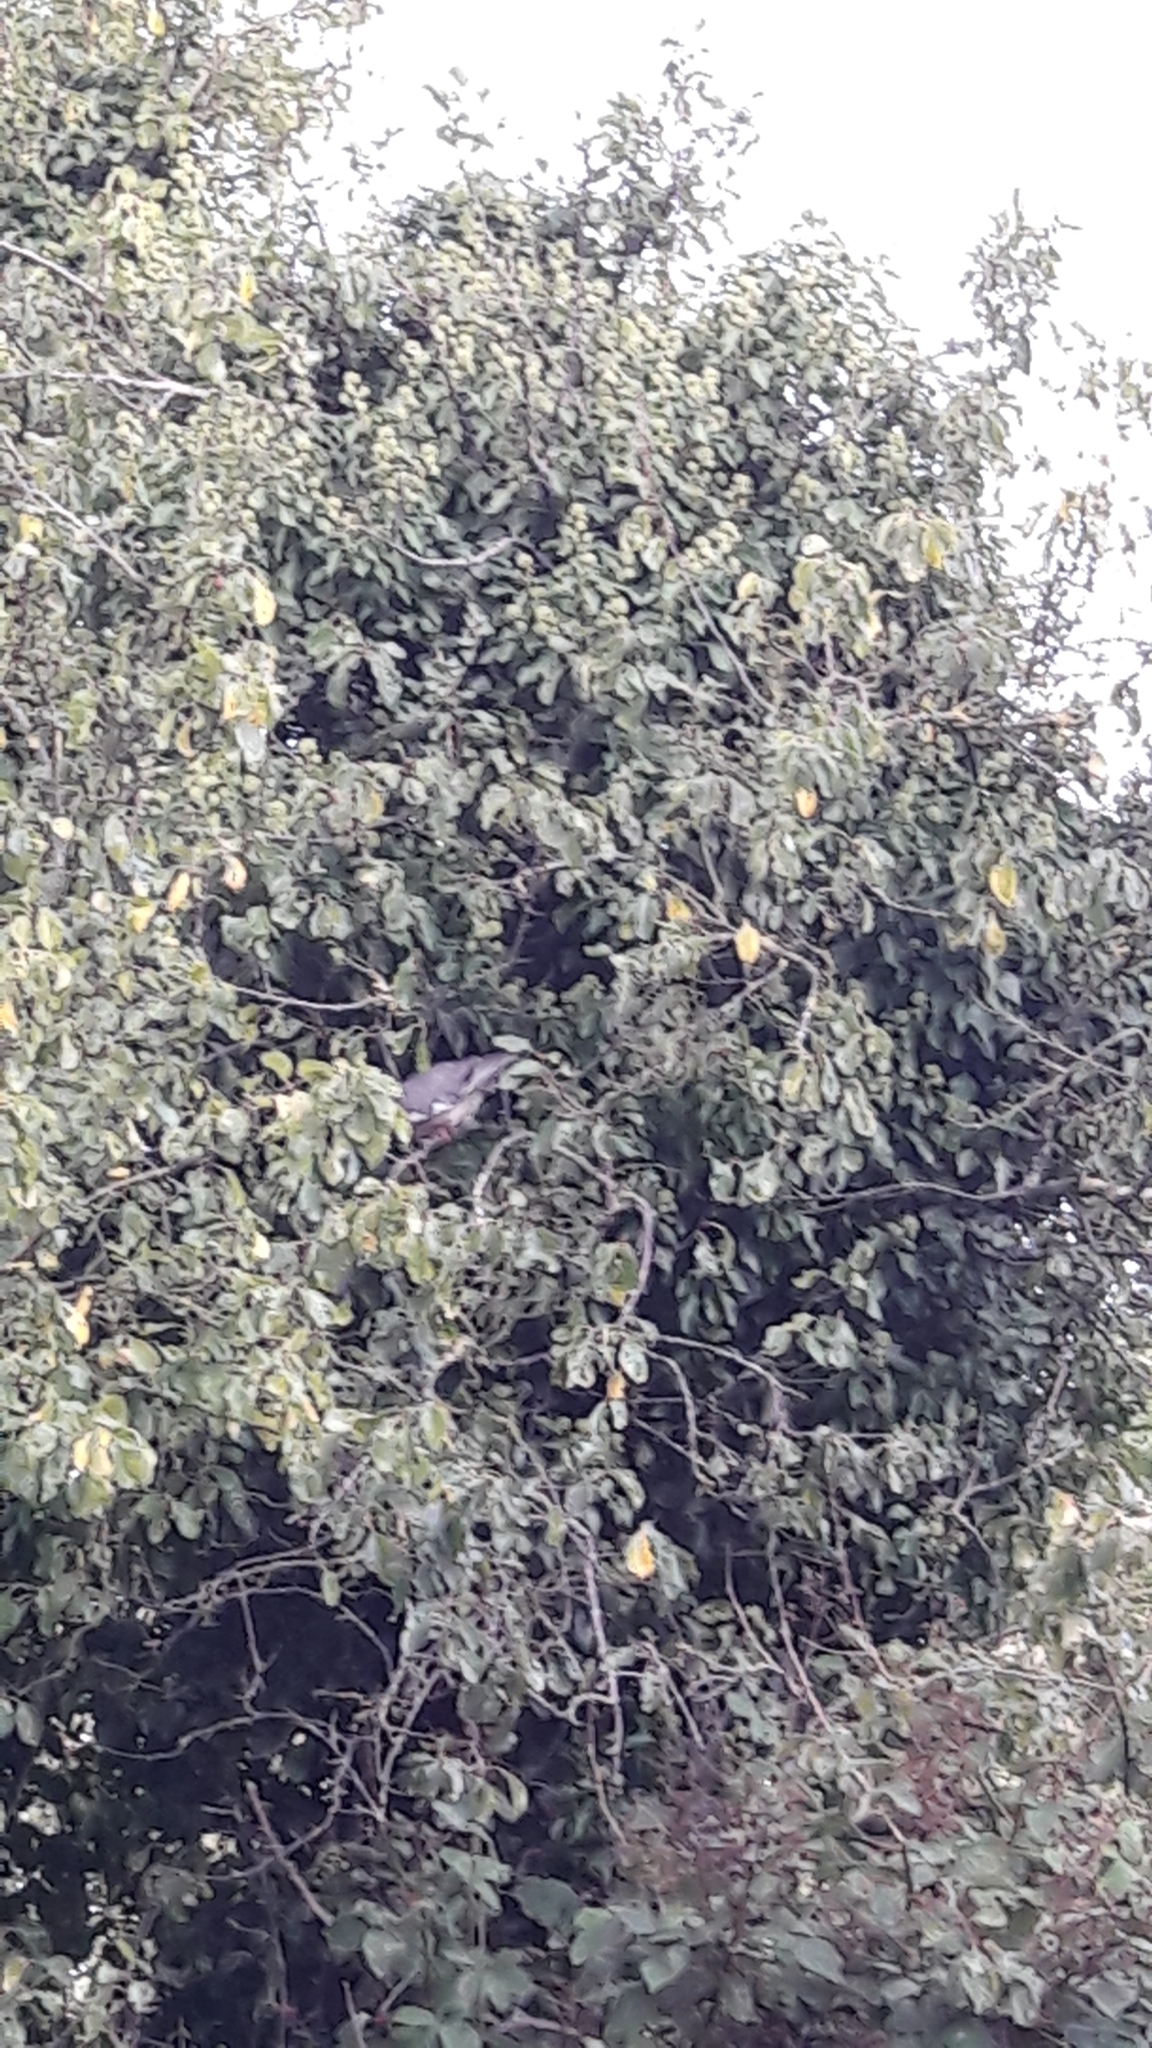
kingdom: Animalia
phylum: Chordata
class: Aves
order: Columbiformes
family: Columbidae
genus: Columba
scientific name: Columba palumbus
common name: Common wood pigeon
